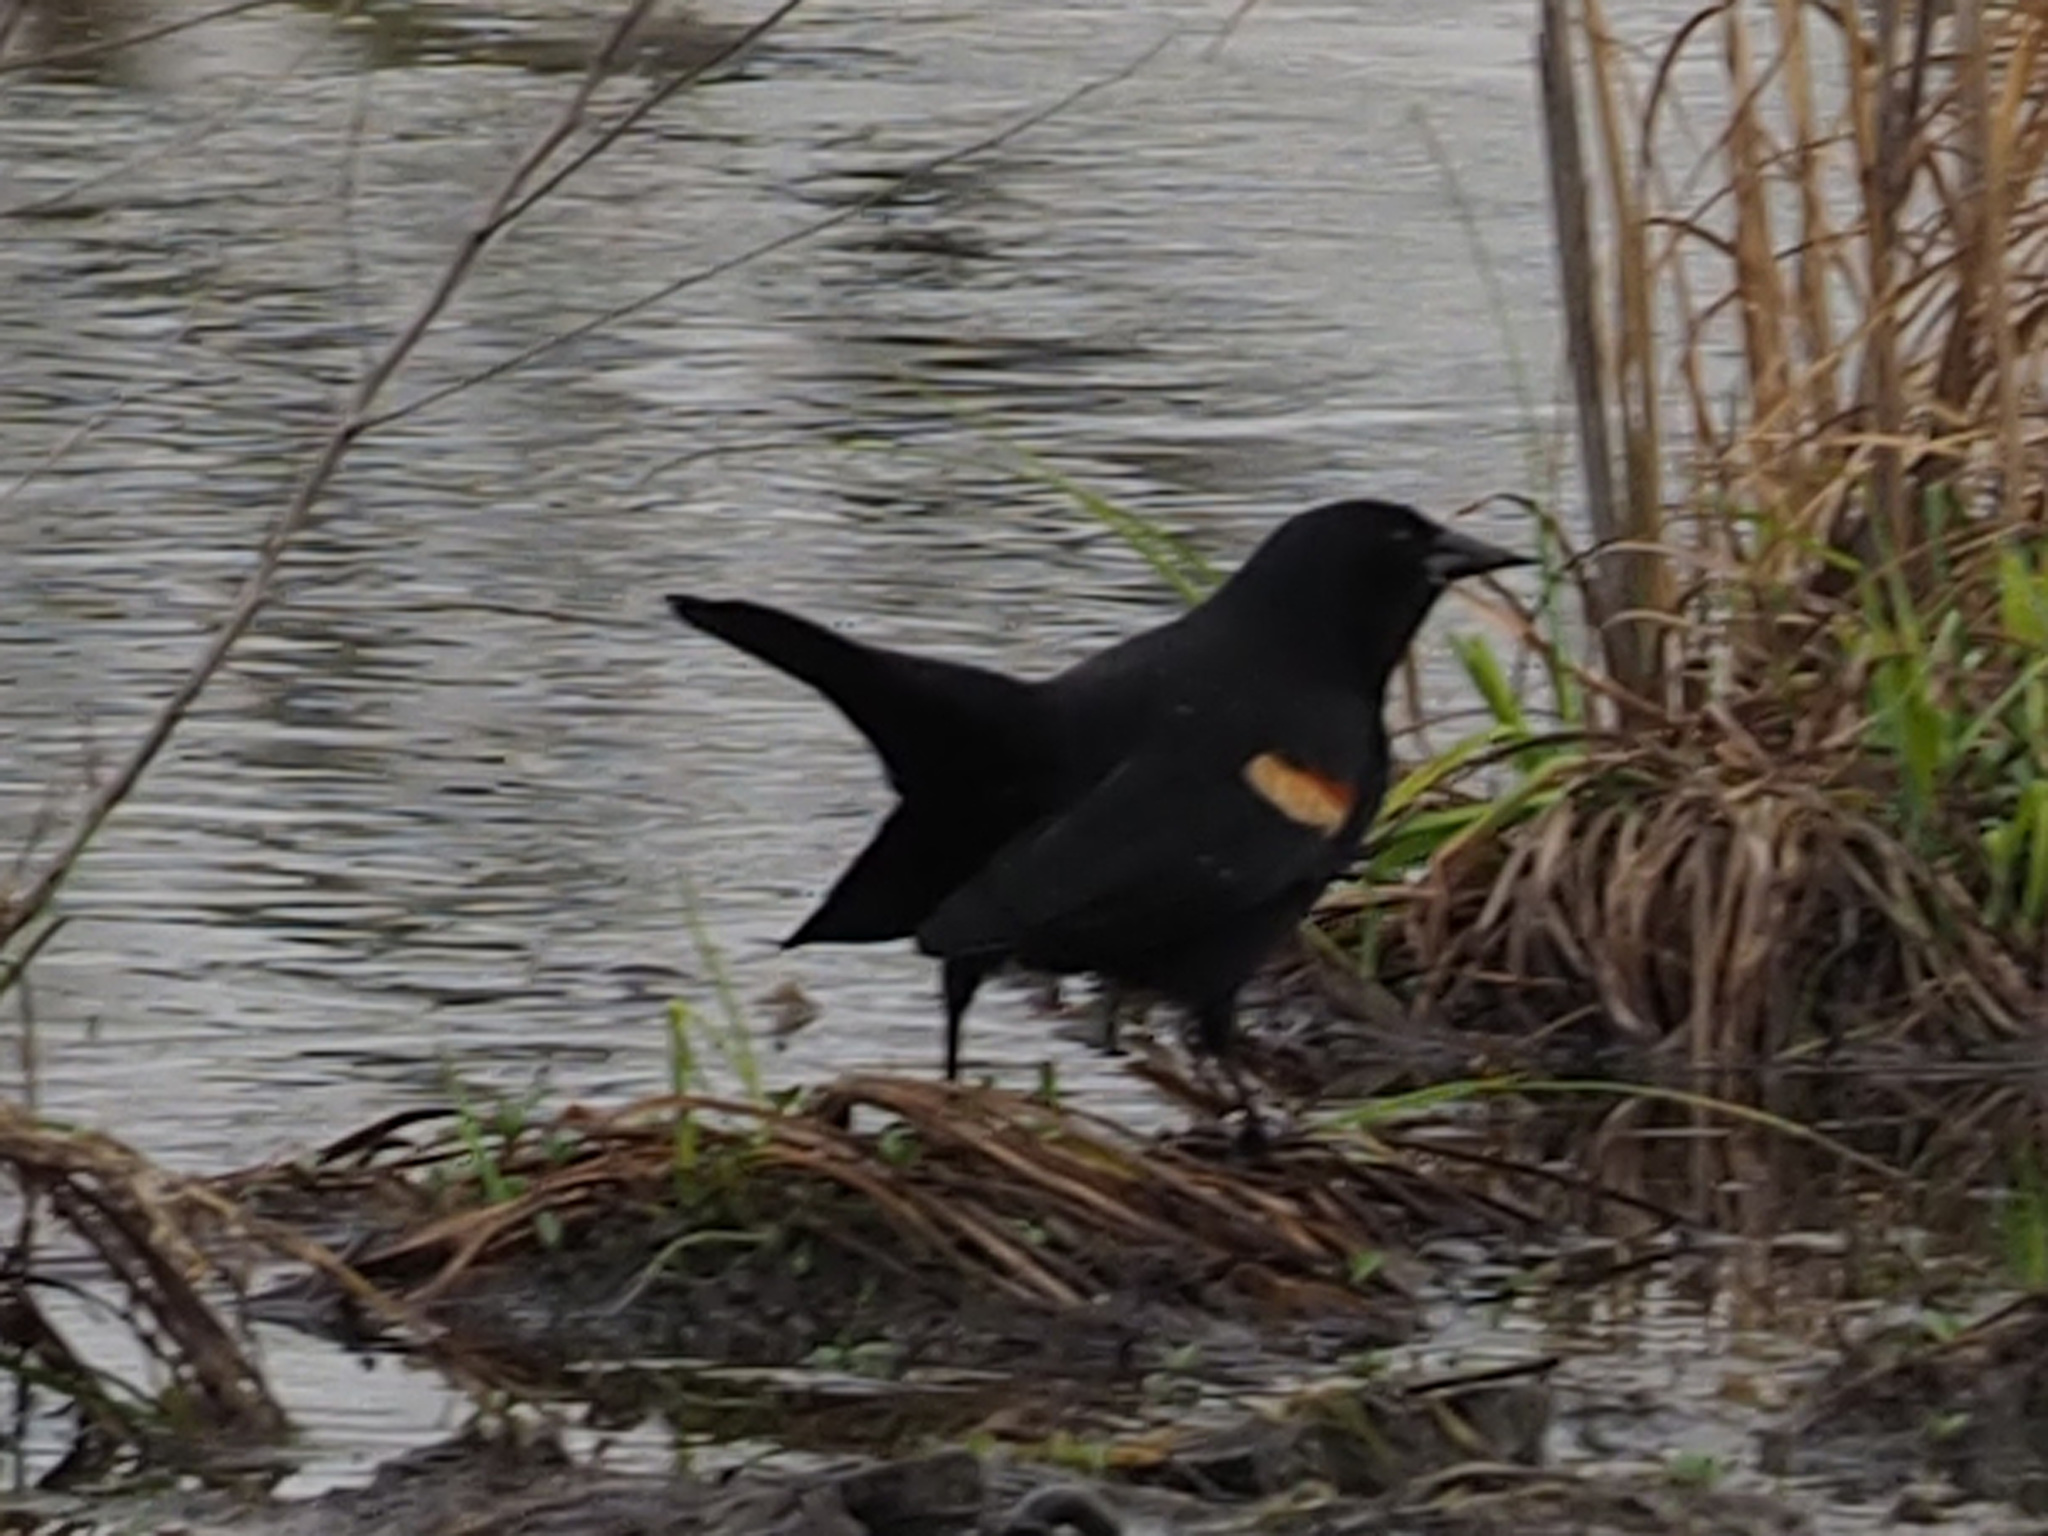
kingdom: Animalia
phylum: Chordata
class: Aves
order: Passeriformes
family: Icteridae
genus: Agelaius
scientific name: Agelaius phoeniceus
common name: Red-winged blackbird
